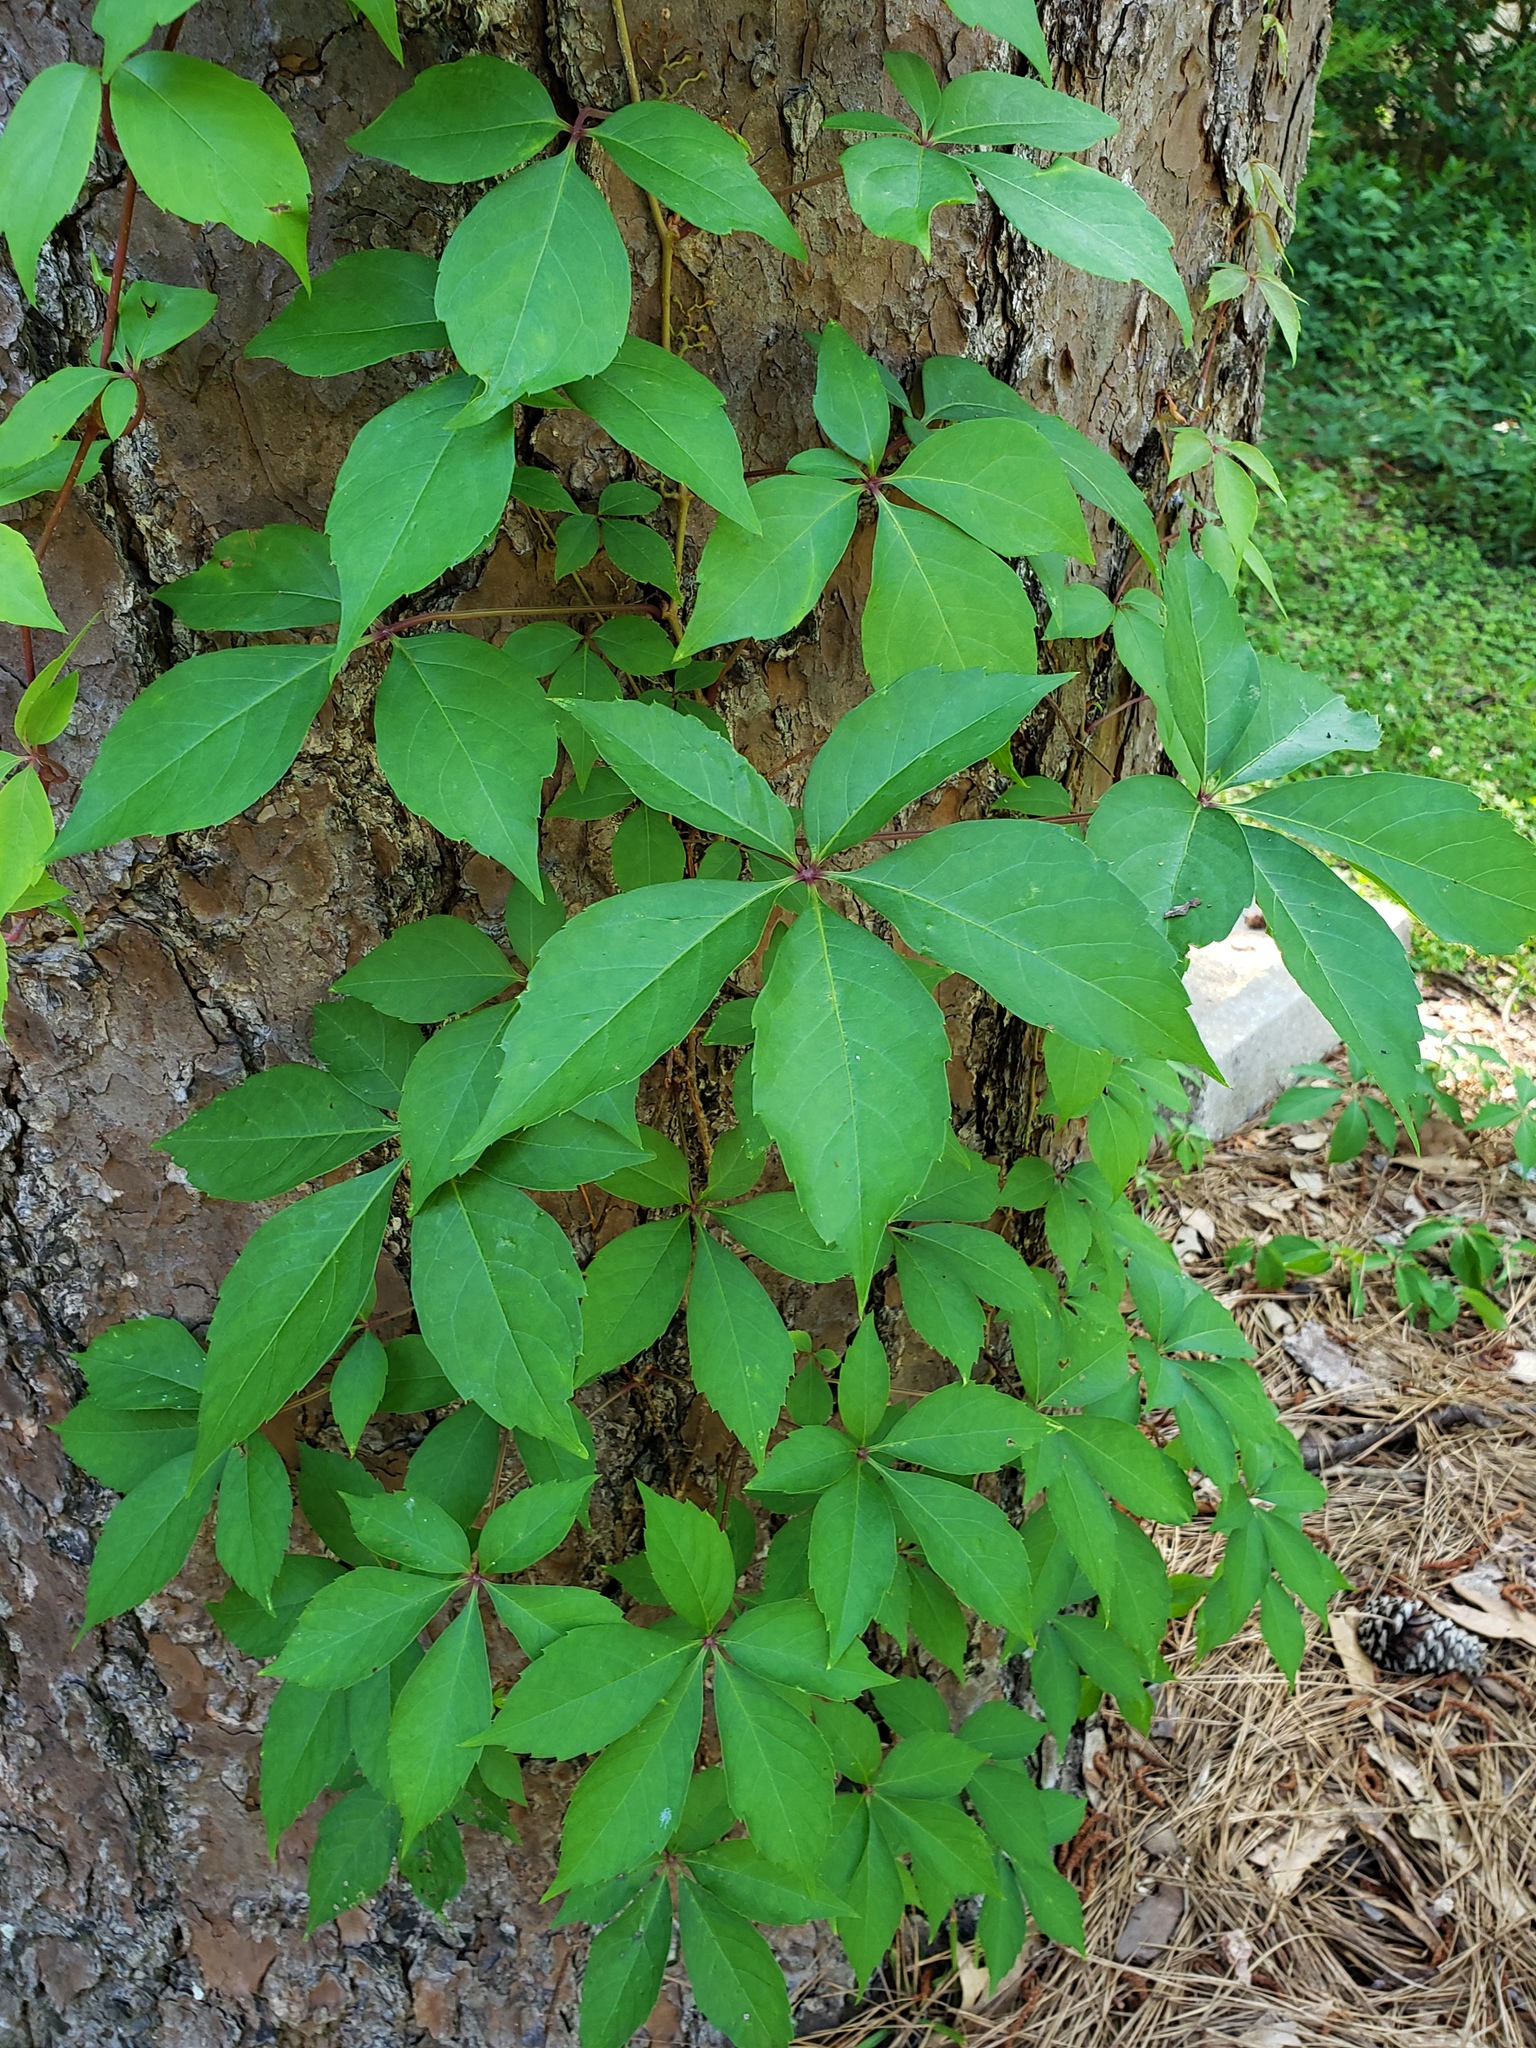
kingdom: Plantae
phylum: Tracheophyta
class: Magnoliopsida
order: Vitales
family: Vitaceae
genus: Parthenocissus
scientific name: Parthenocissus quinquefolia
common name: Virginia-creeper
